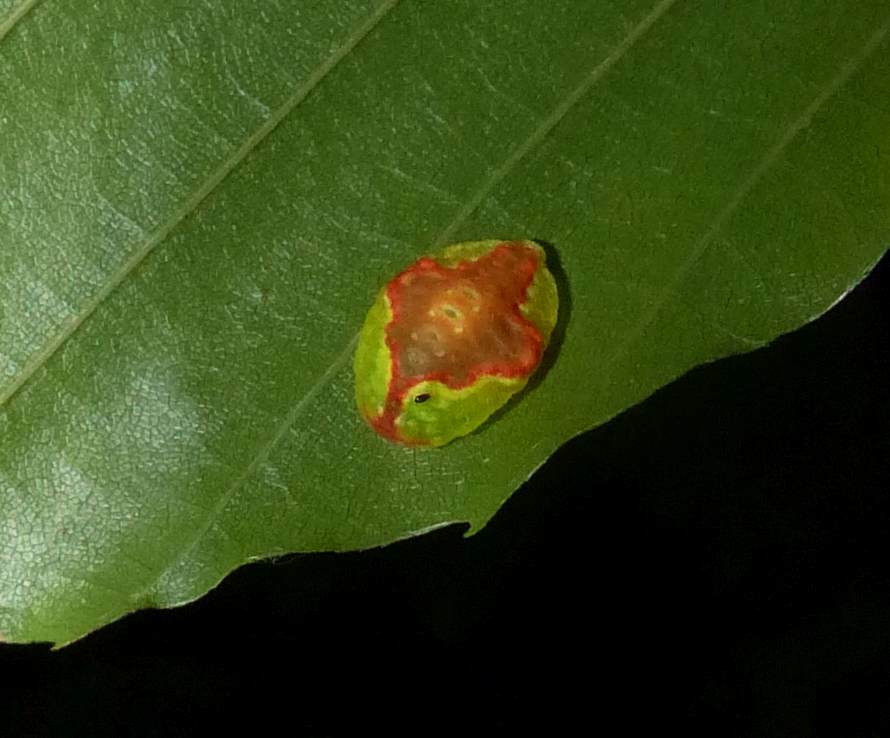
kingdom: Animalia
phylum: Arthropoda
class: Insecta
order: Lepidoptera
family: Limacodidae
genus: Tortricidia
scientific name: Tortricidia pallida
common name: Red-crossed button slug moth
